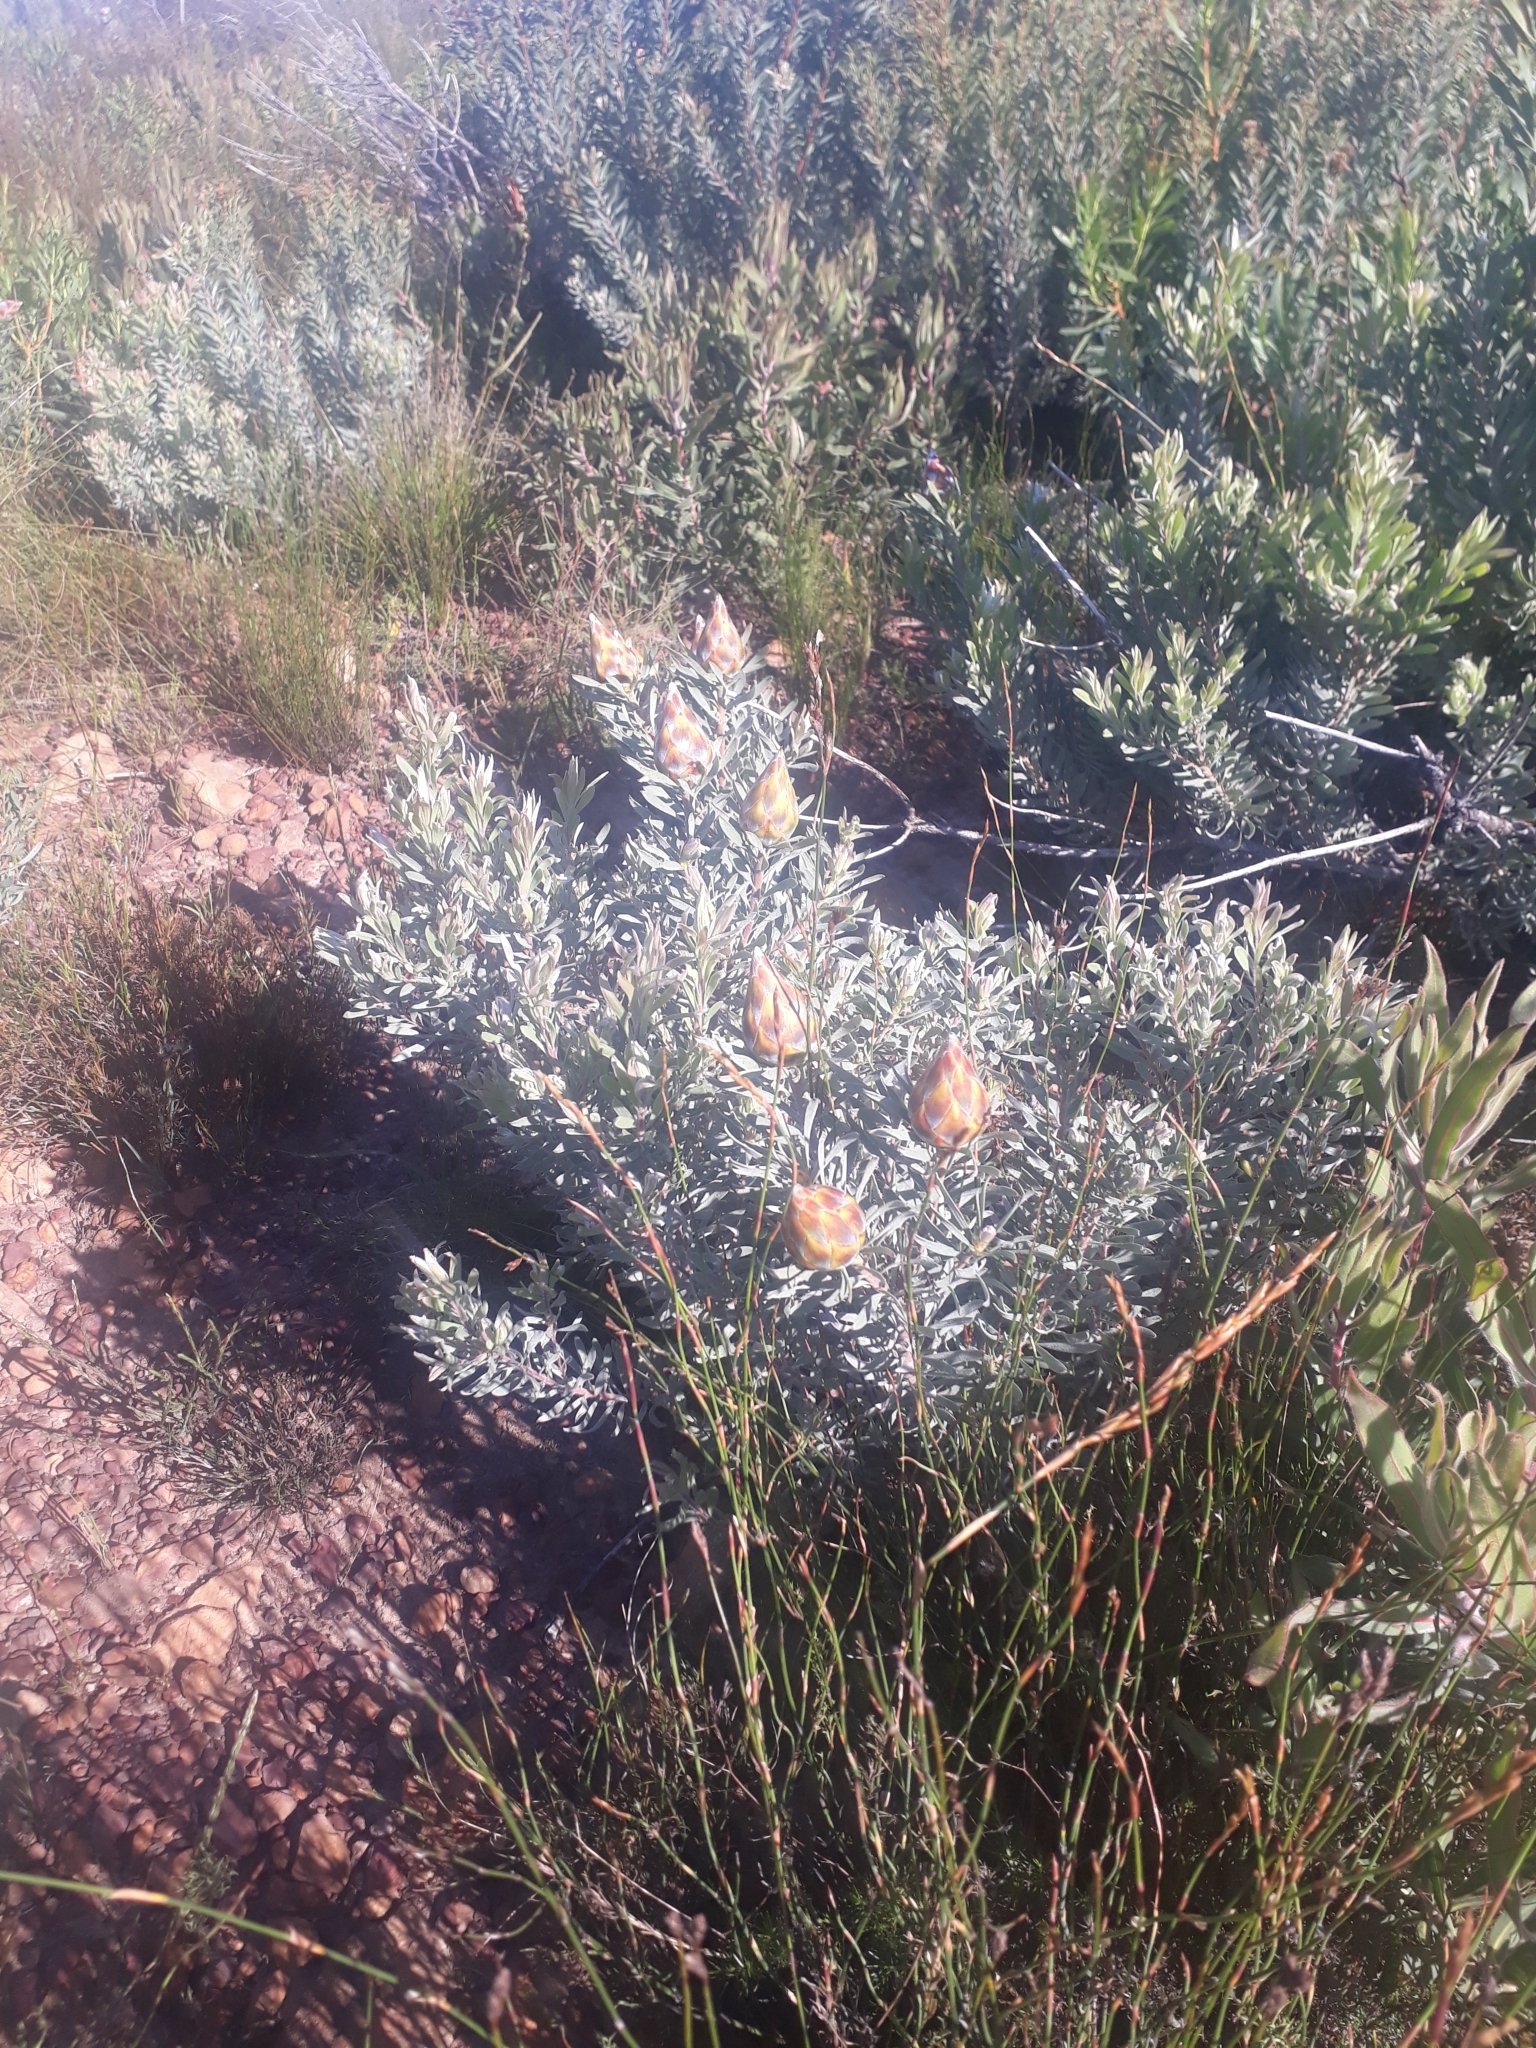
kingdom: Plantae
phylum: Tracheophyta
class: Magnoliopsida
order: Proteales
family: Proteaceae
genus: Leucadendron
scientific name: Leucadendron rubrum
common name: Spinning top
